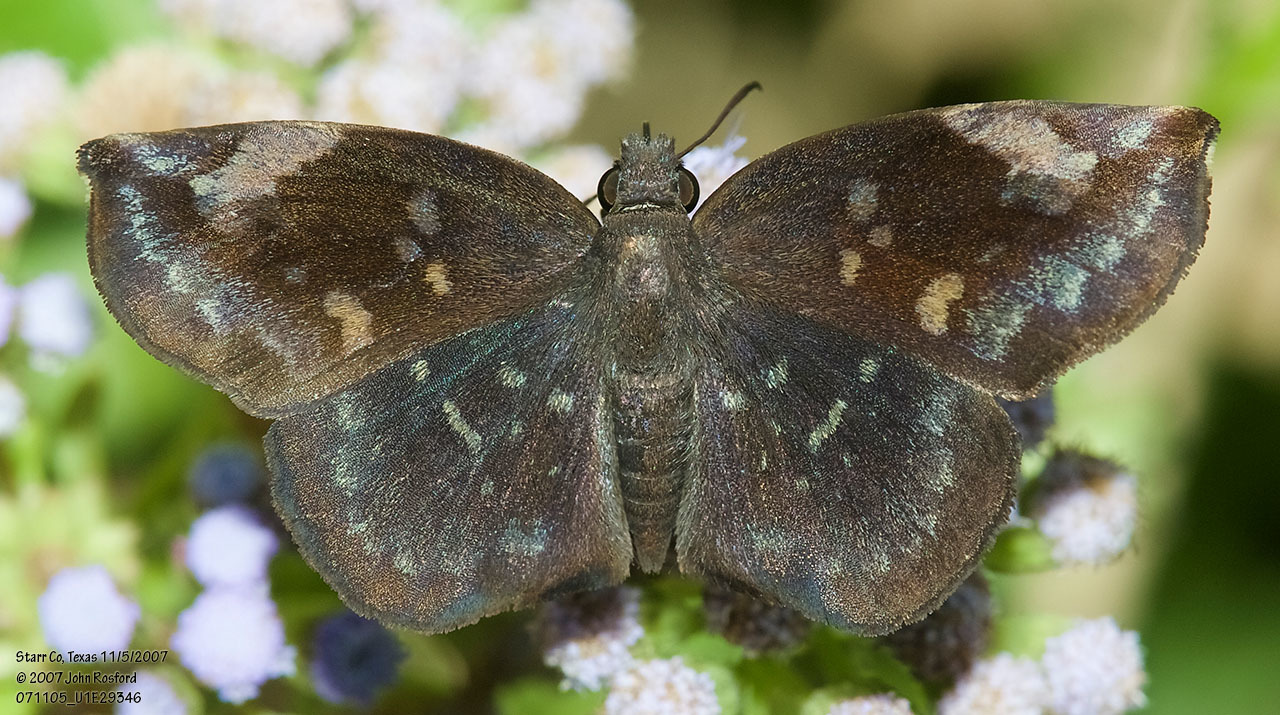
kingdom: Animalia
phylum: Arthropoda
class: Insecta
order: Lepidoptera
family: Hesperiidae
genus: Achlyodes
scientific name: Achlyodes thraso
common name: Sickle-winged skipper
